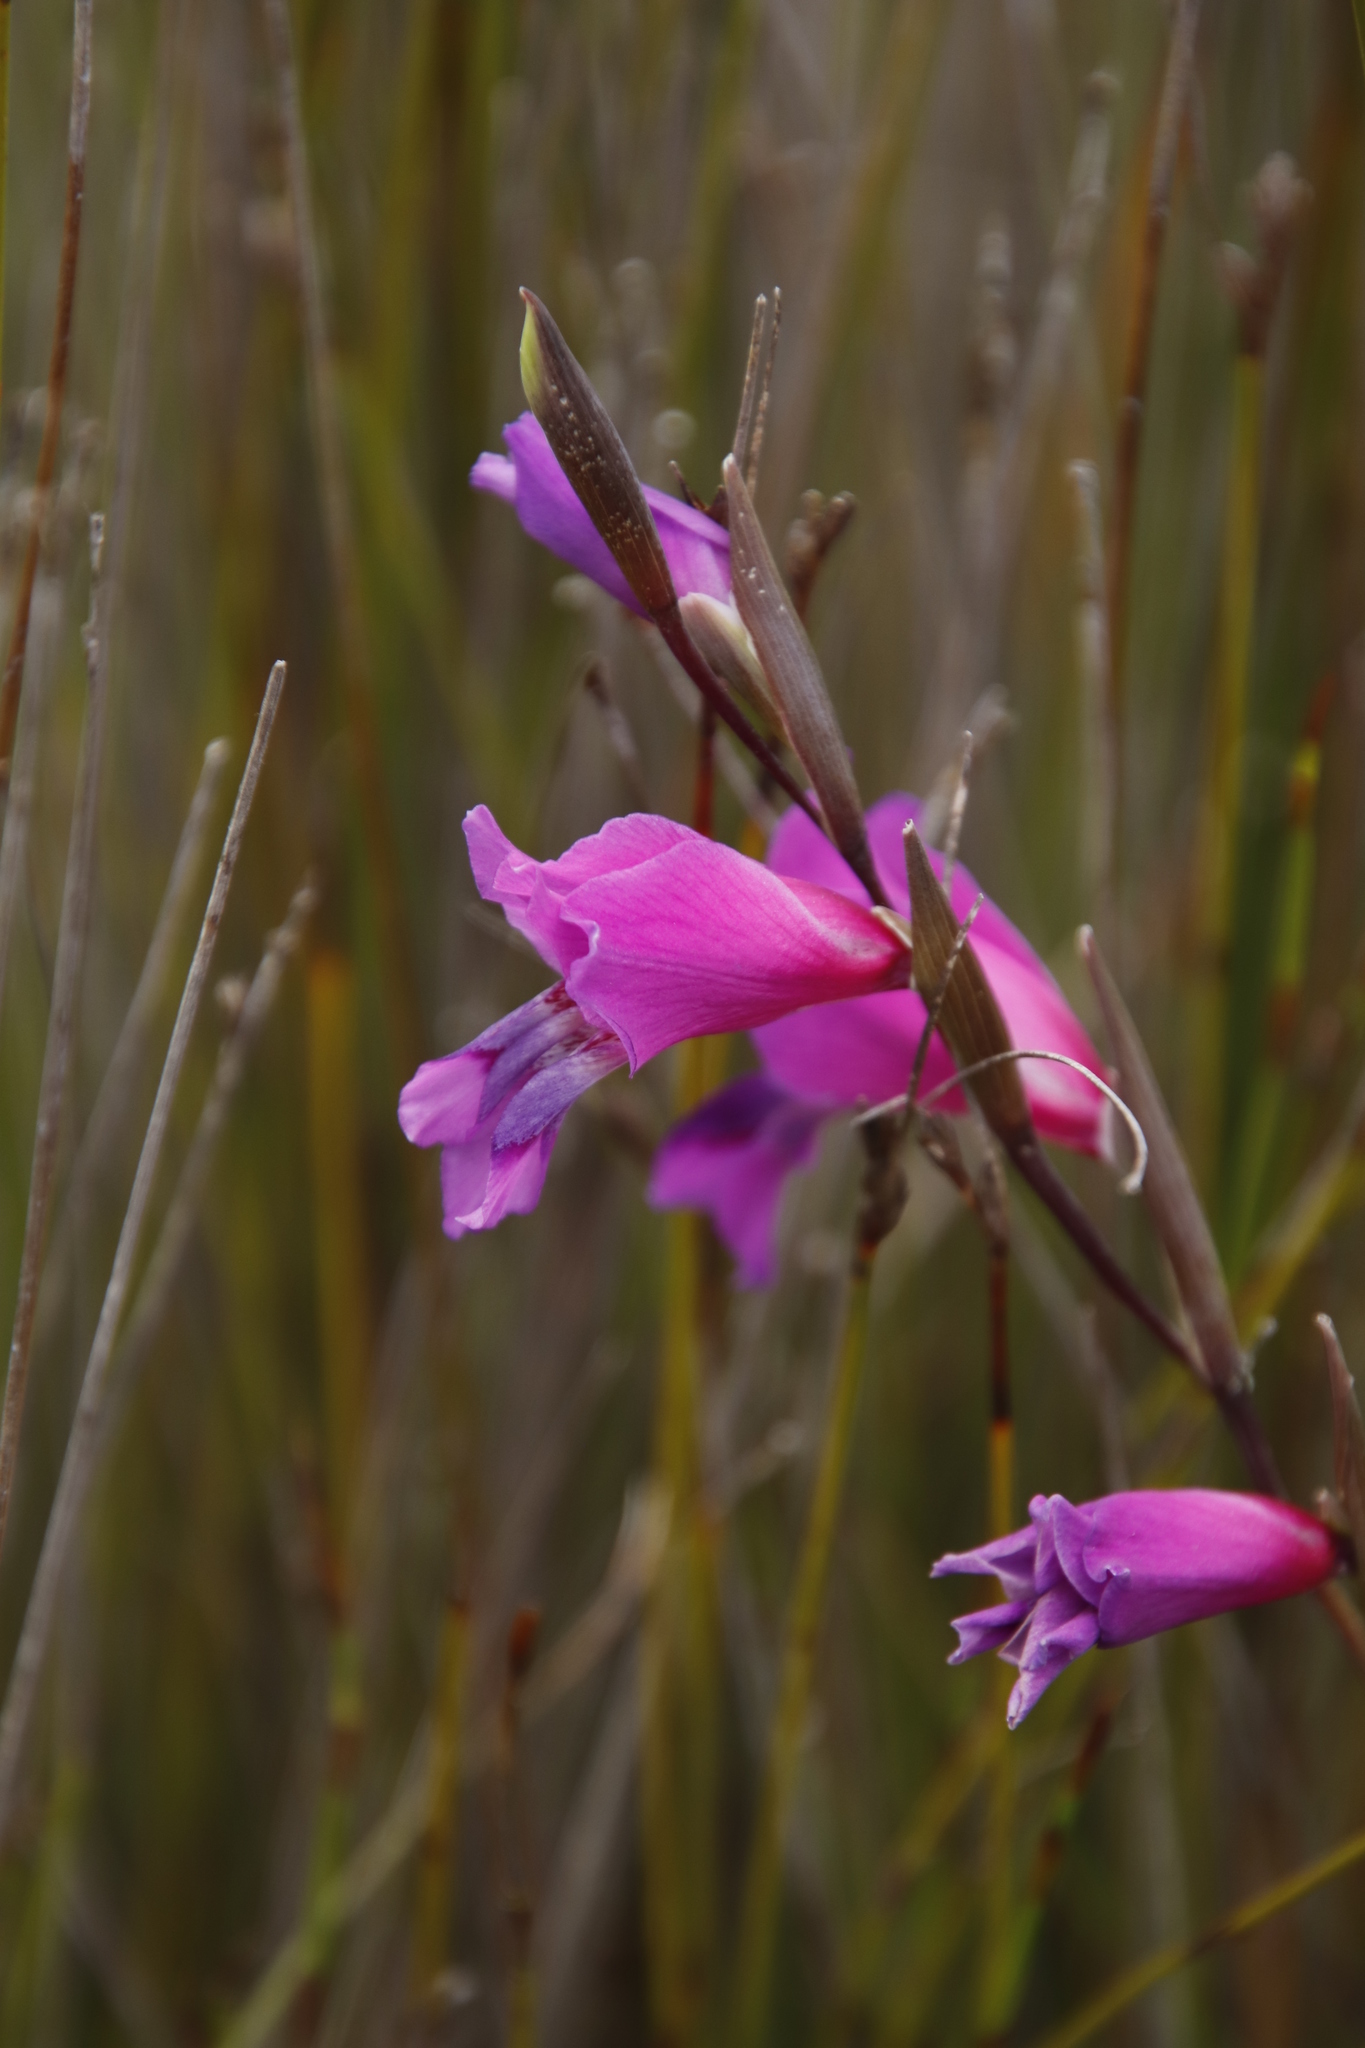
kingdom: Plantae
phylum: Tracheophyta
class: Liliopsida
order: Asparagales
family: Iridaceae
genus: Gladiolus
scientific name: Gladiolus carinatus
